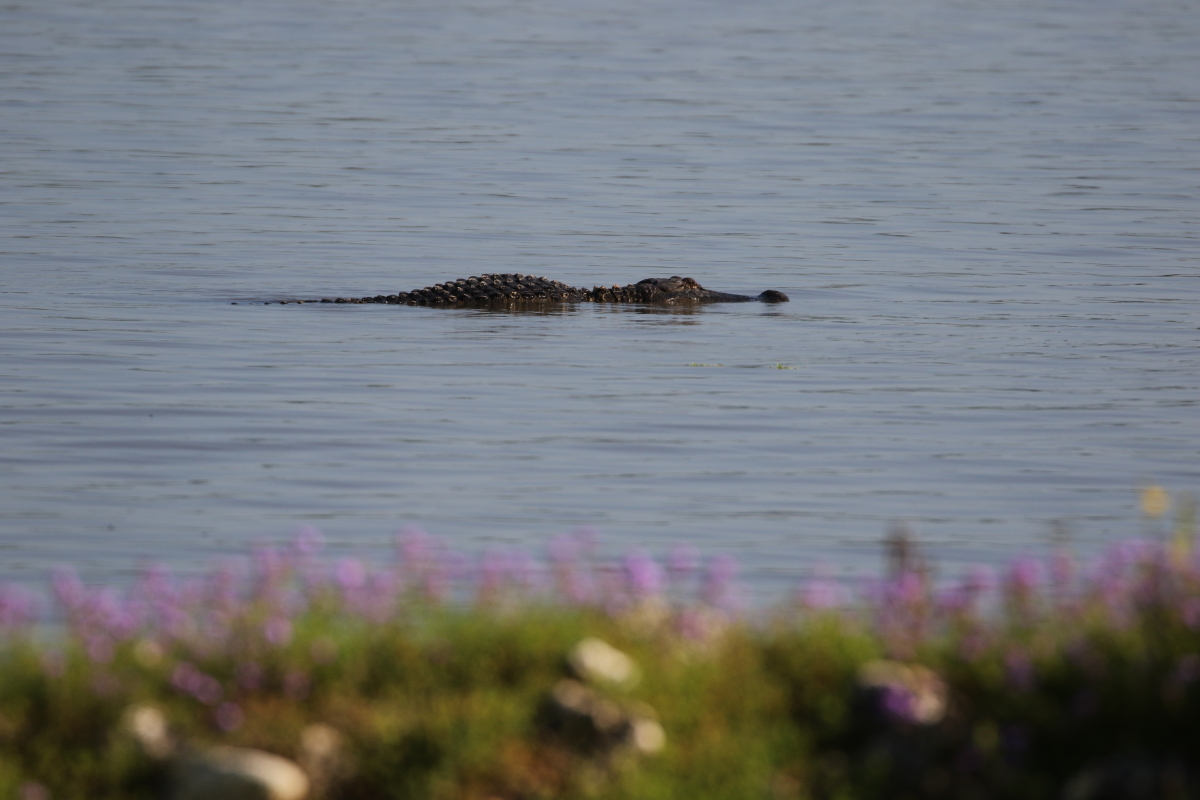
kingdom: Animalia
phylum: Chordata
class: Crocodylia
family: Alligatoridae
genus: Alligator
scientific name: Alligator mississippiensis
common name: American alligator
